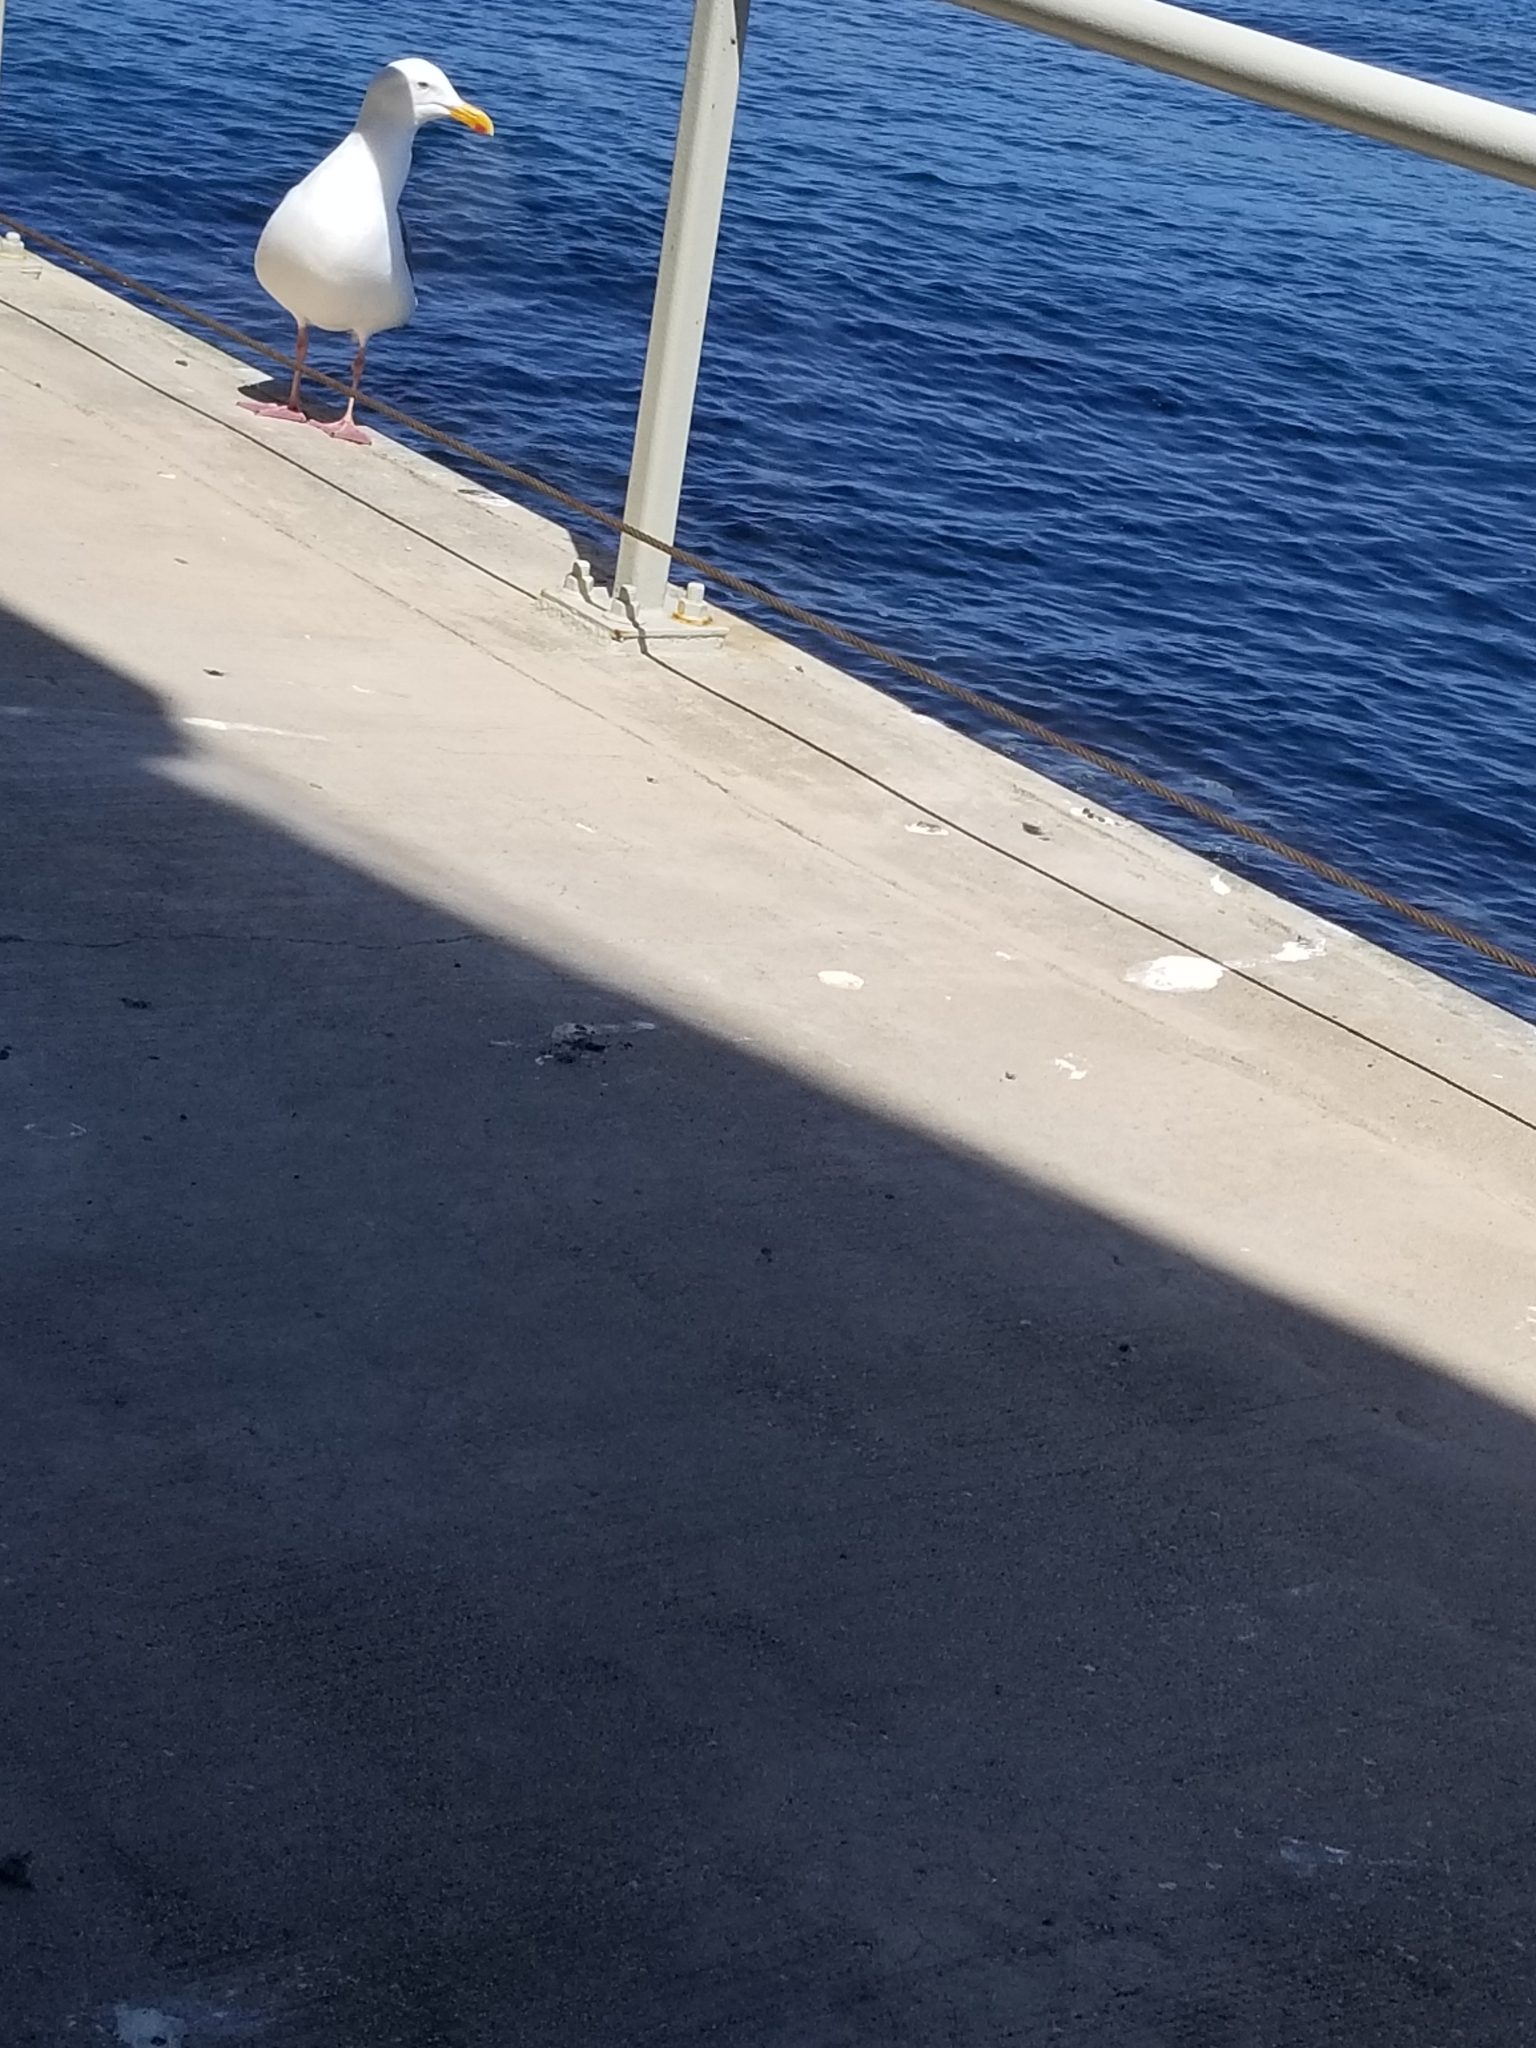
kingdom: Animalia
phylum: Chordata
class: Aves
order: Charadriiformes
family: Laridae
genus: Larus
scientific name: Larus occidentalis
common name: Western gull
